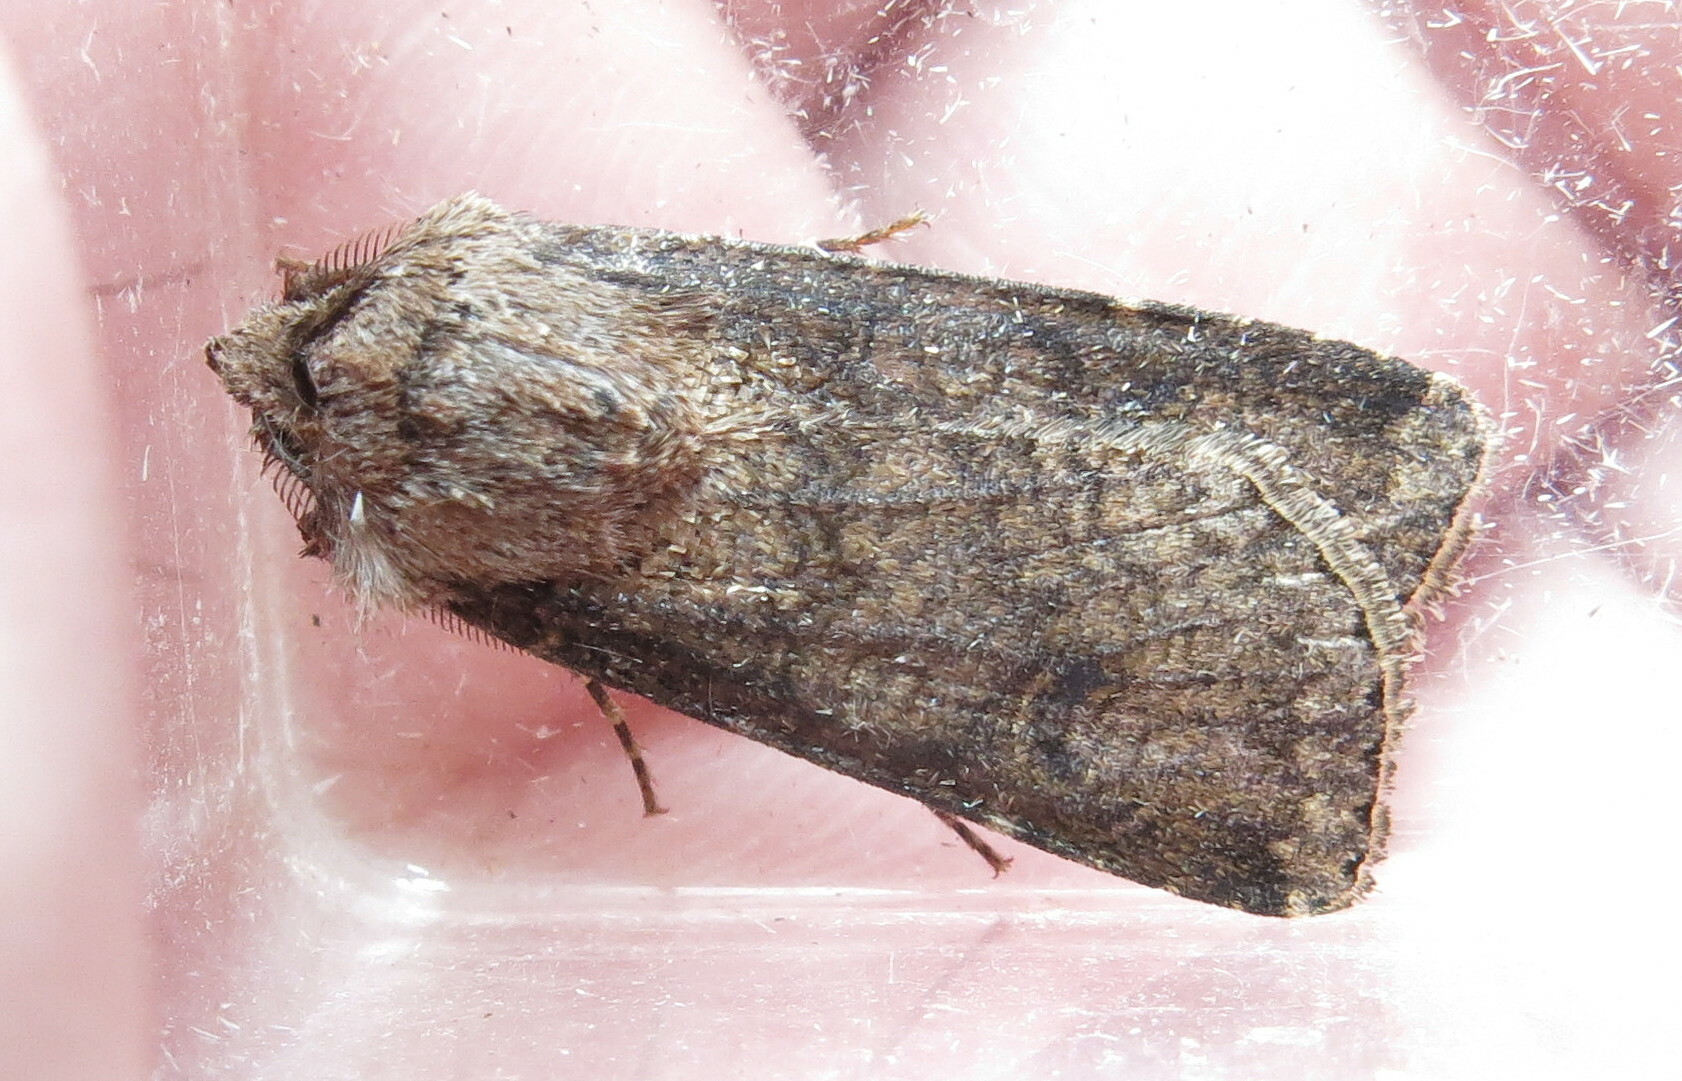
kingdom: Animalia
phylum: Arthropoda
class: Insecta
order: Lepidoptera
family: Noctuidae
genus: Agrotis
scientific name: Agrotis segetum
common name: Turnip moth
